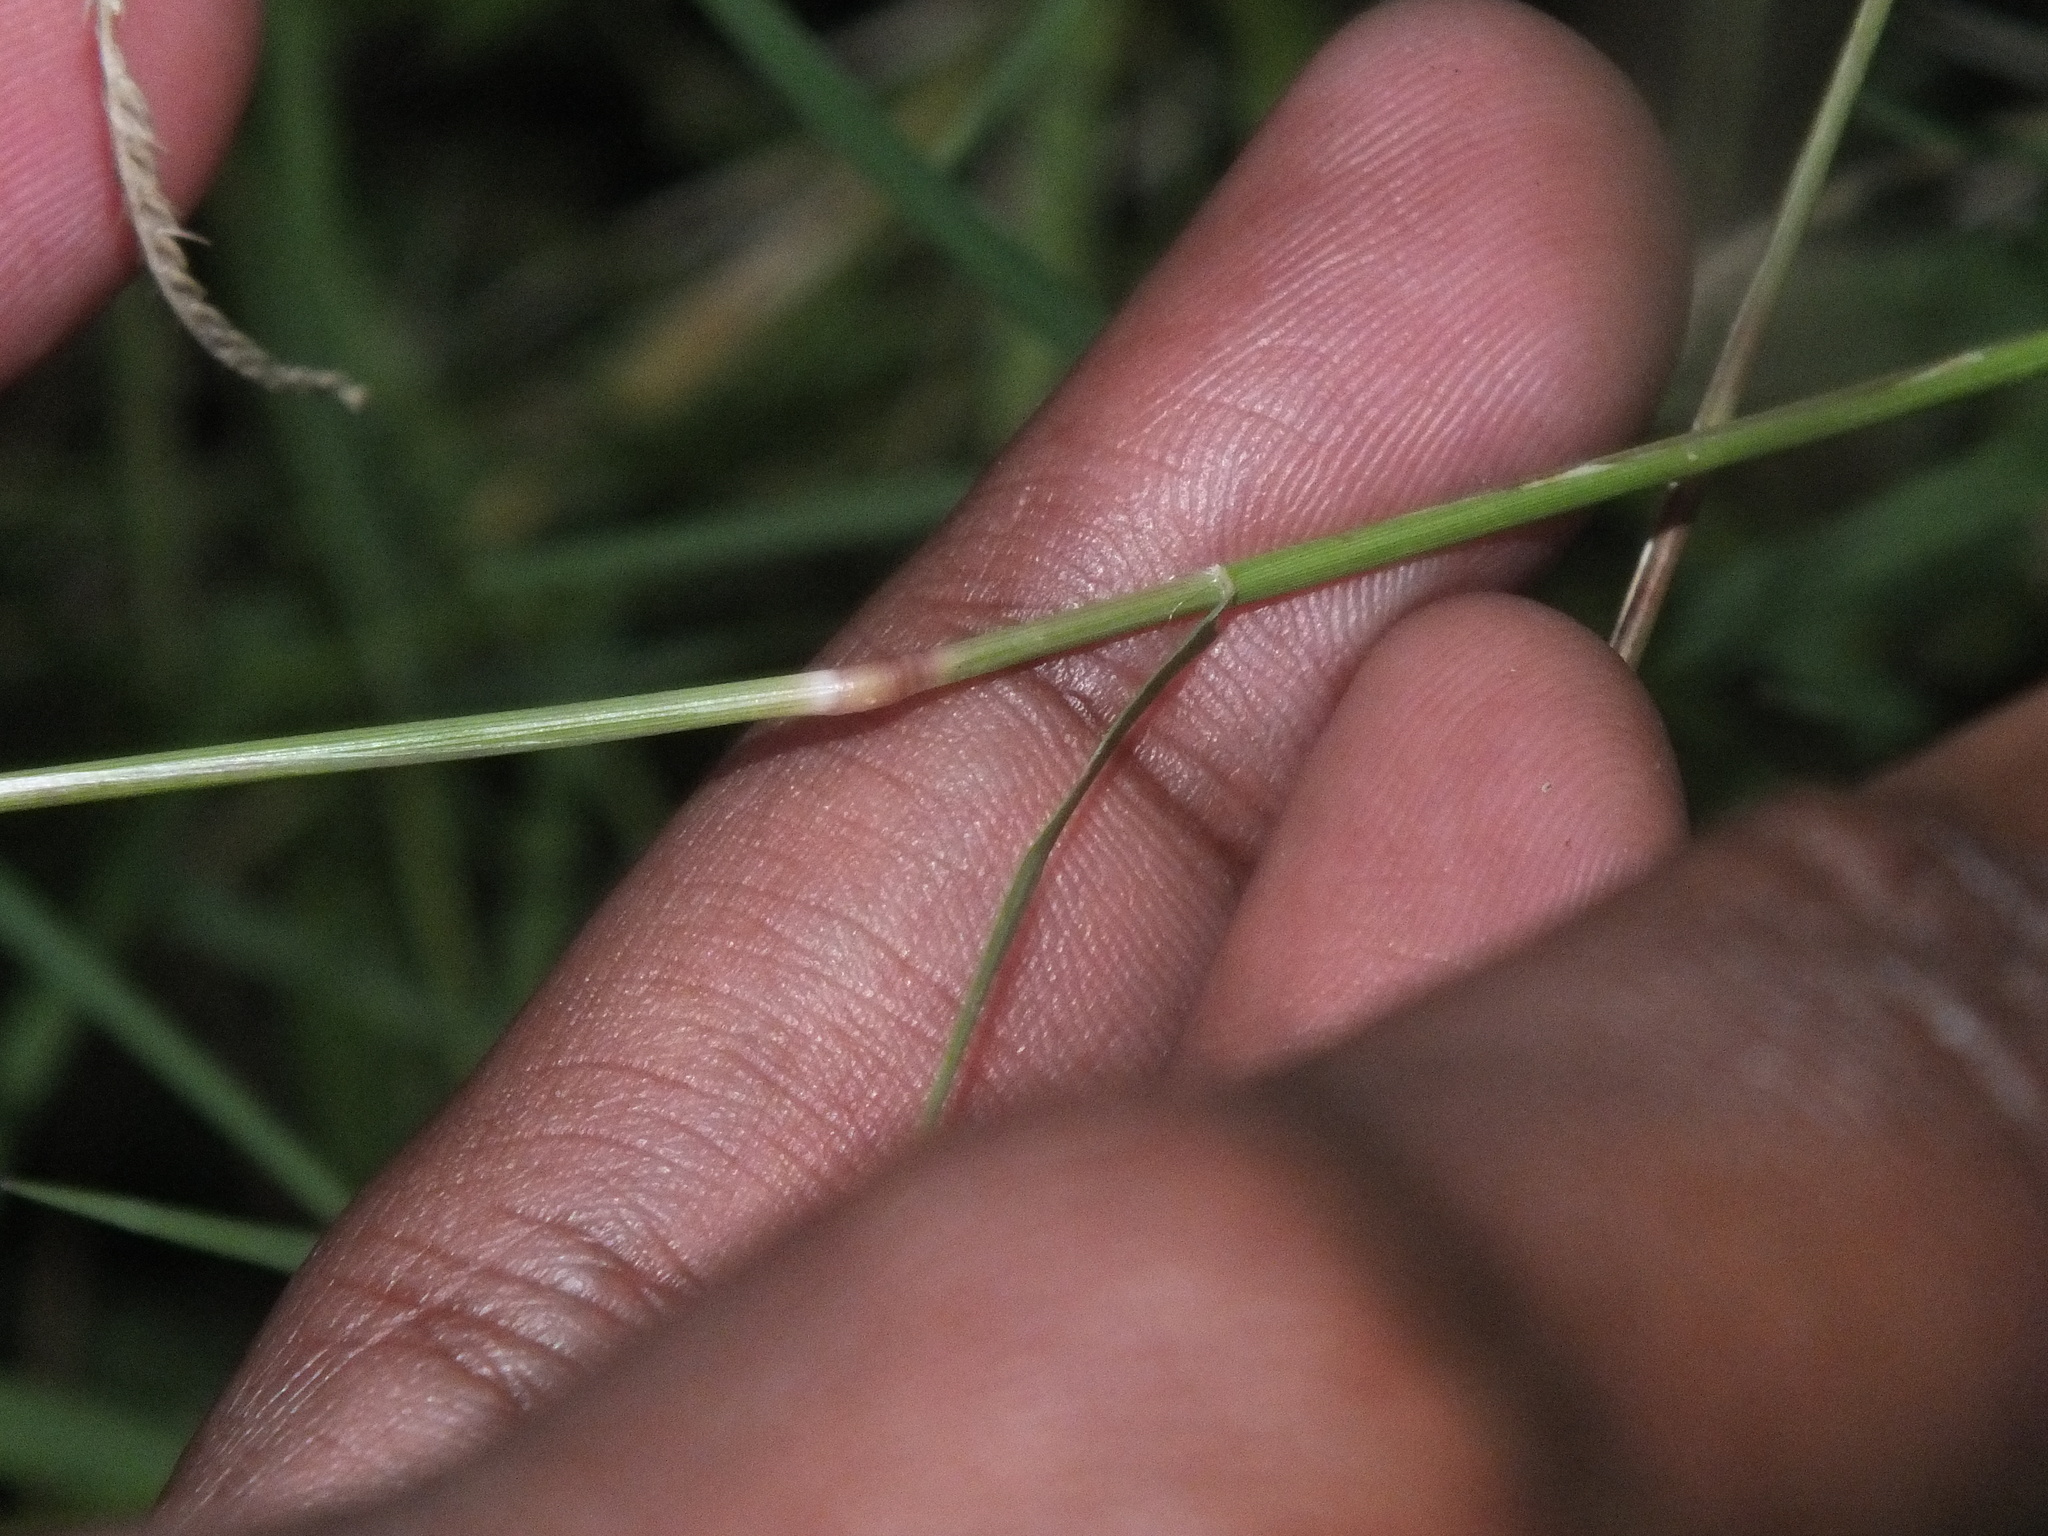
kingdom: Plantae
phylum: Tracheophyta
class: Liliopsida
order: Poales
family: Poaceae
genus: Cynodon
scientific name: Cynodon dactylon
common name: Bermuda grass
